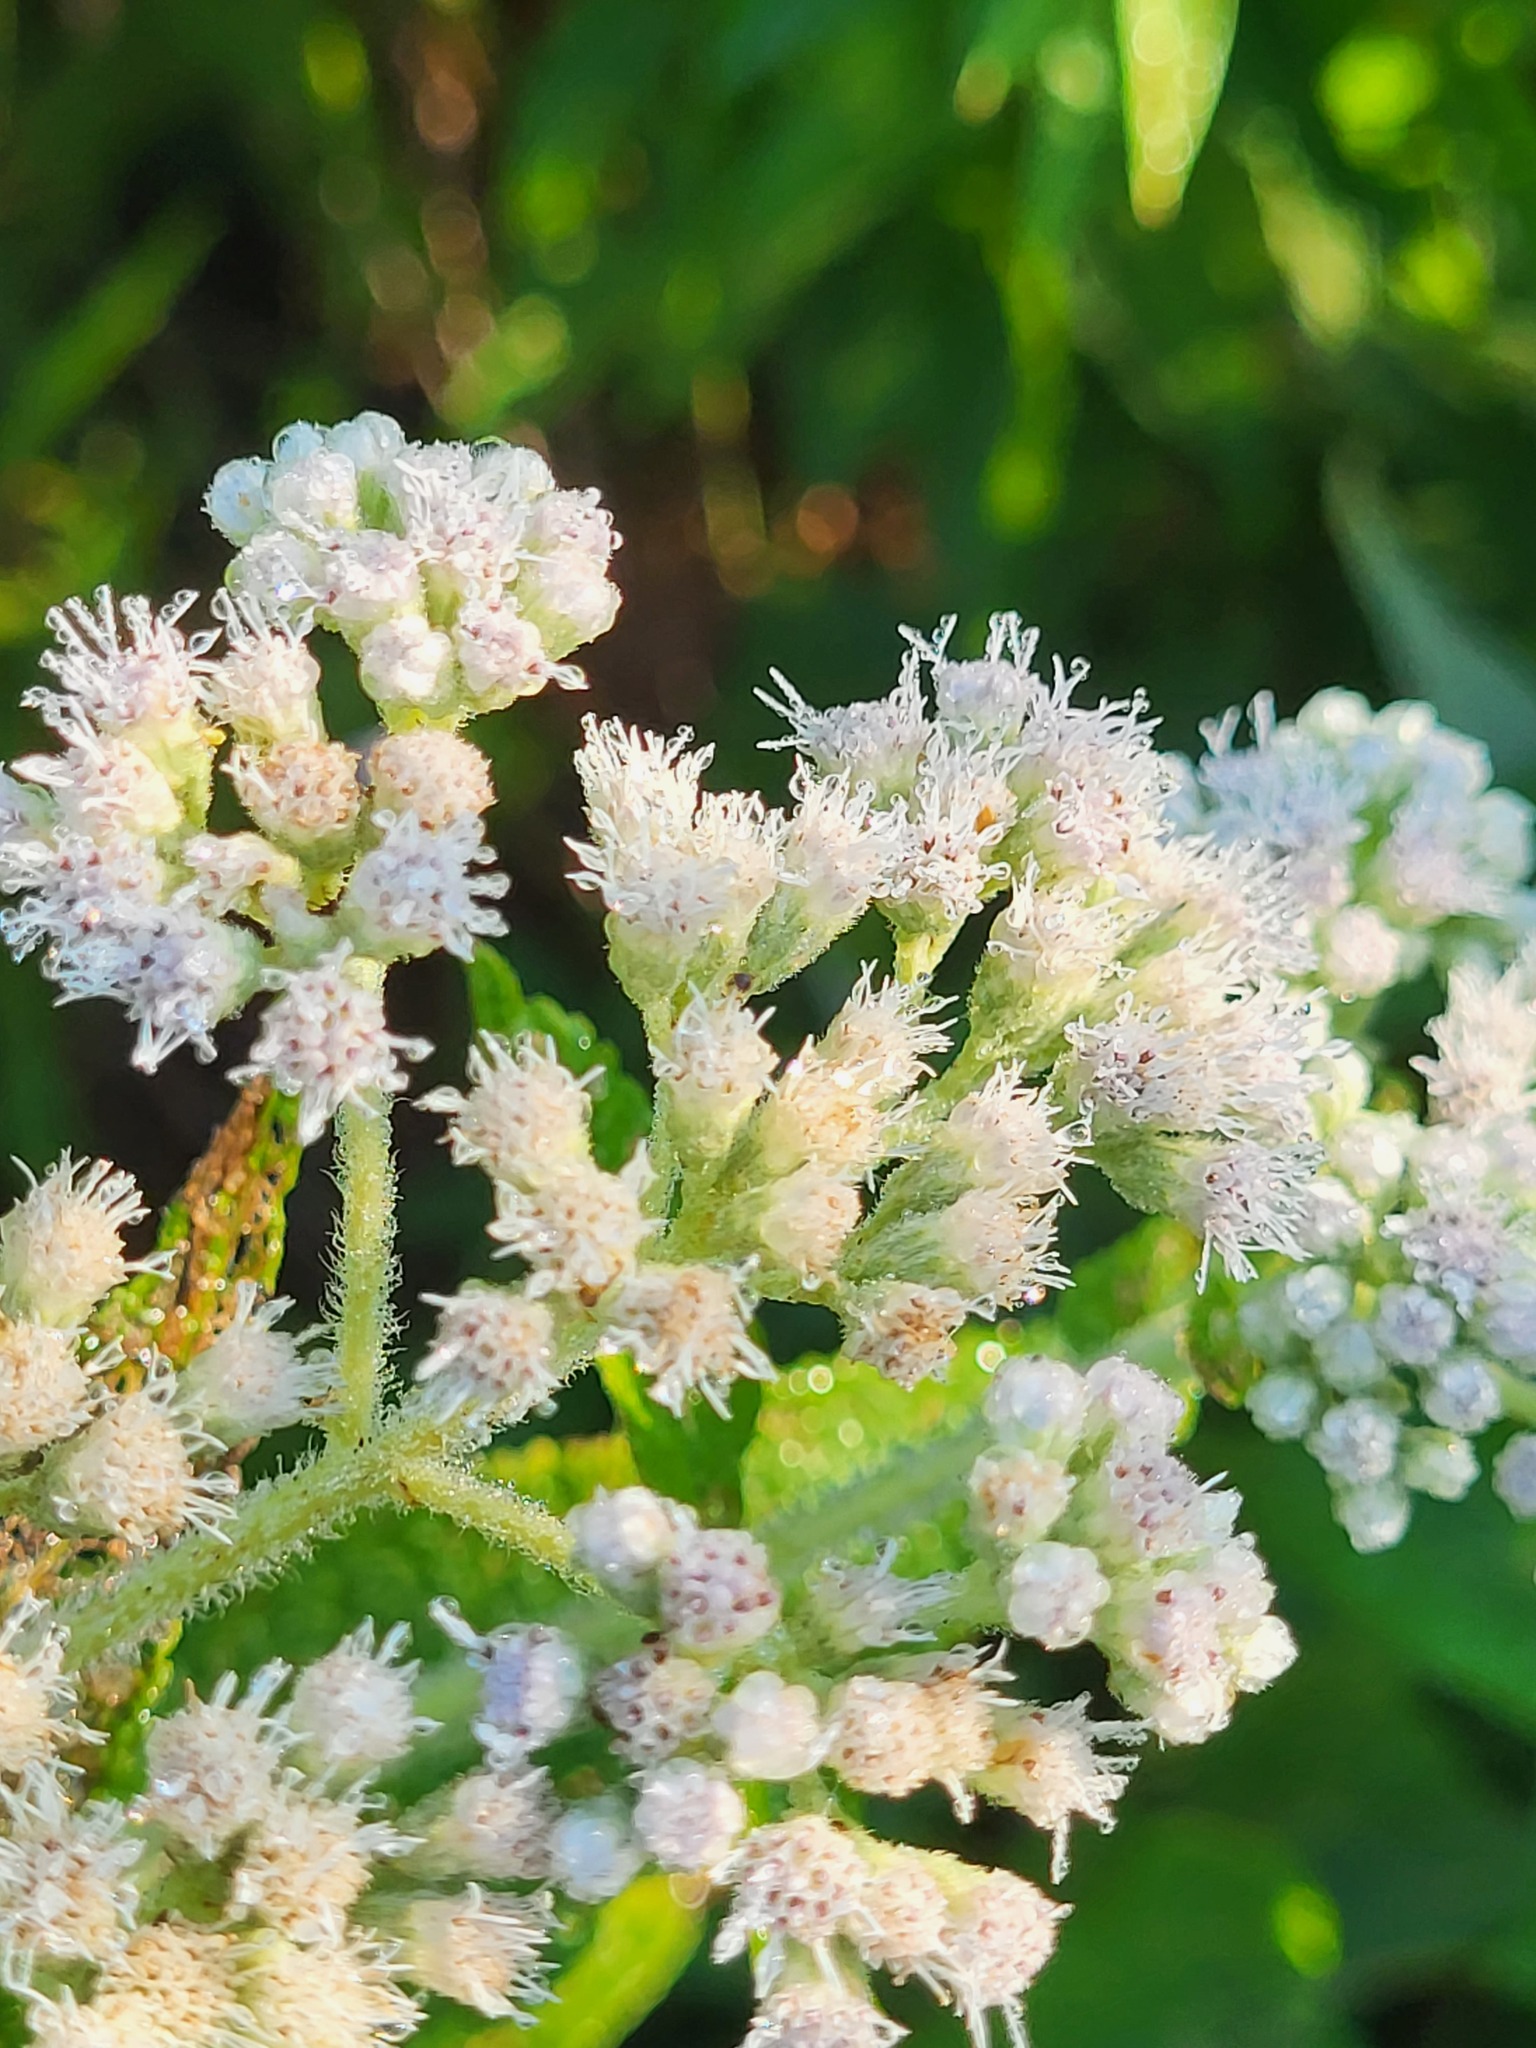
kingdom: Plantae
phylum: Tracheophyta
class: Magnoliopsida
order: Asterales
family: Asteraceae
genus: Eupatorium
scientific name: Eupatorium perfoliatum
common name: Boneset
